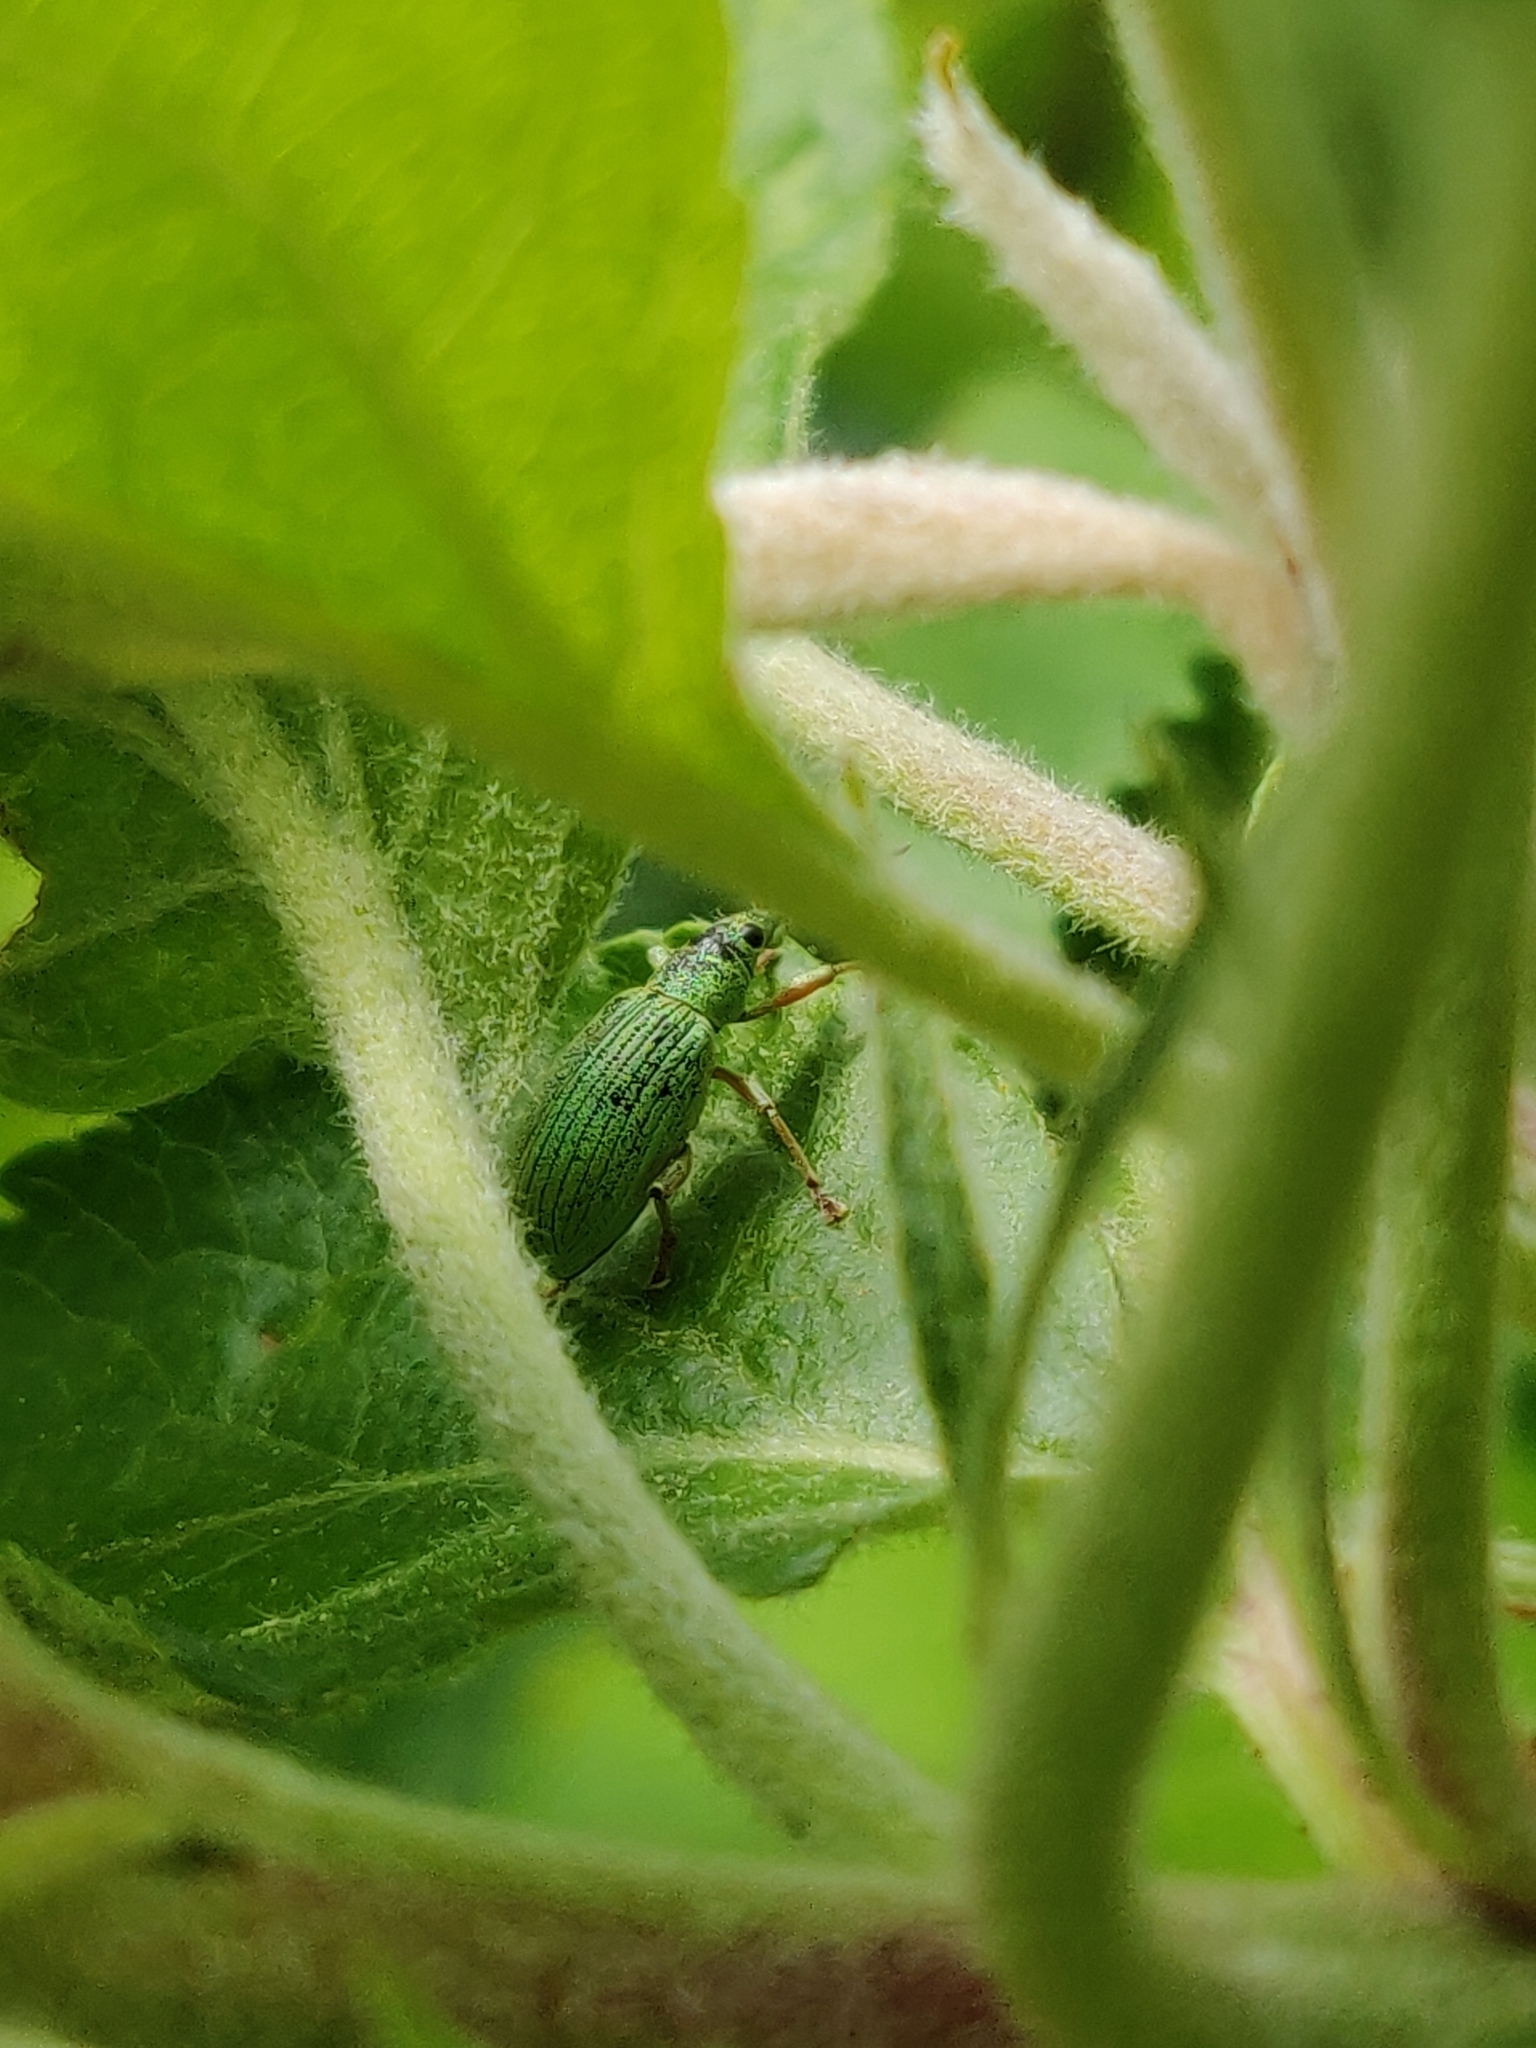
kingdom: Animalia
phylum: Arthropoda
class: Insecta
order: Coleoptera
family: Curculionidae
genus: Polydrusus
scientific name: Polydrusus formosus
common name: Weevil
